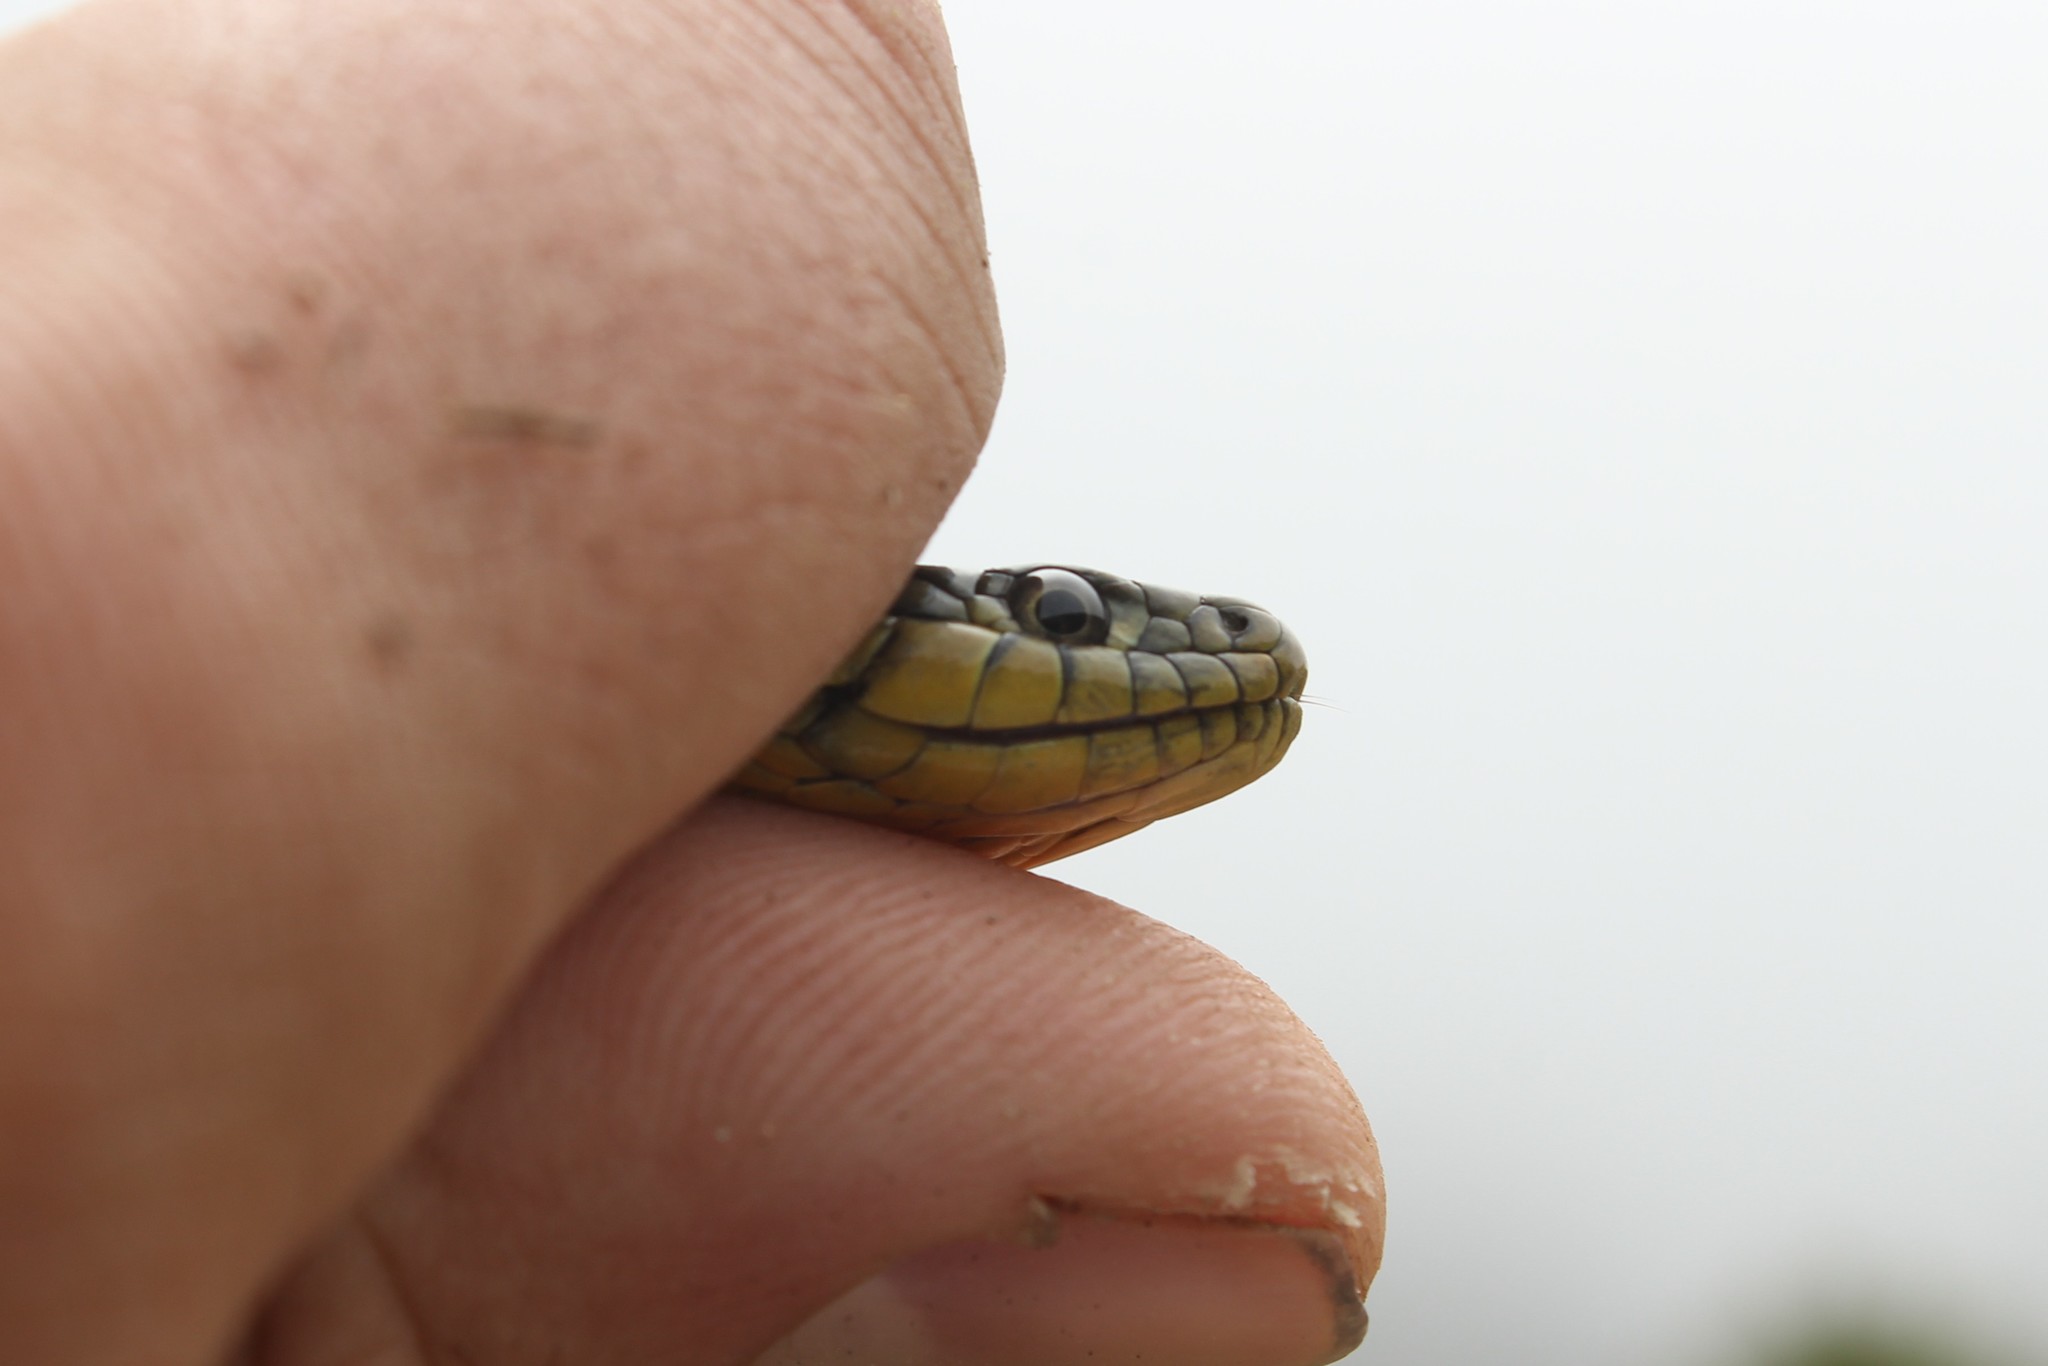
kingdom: Animalia
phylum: Chordata
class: Squamata
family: Colubridae
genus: Thamnophis
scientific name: Thamnophis atratus
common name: Pacific coast aquatic garter snake
